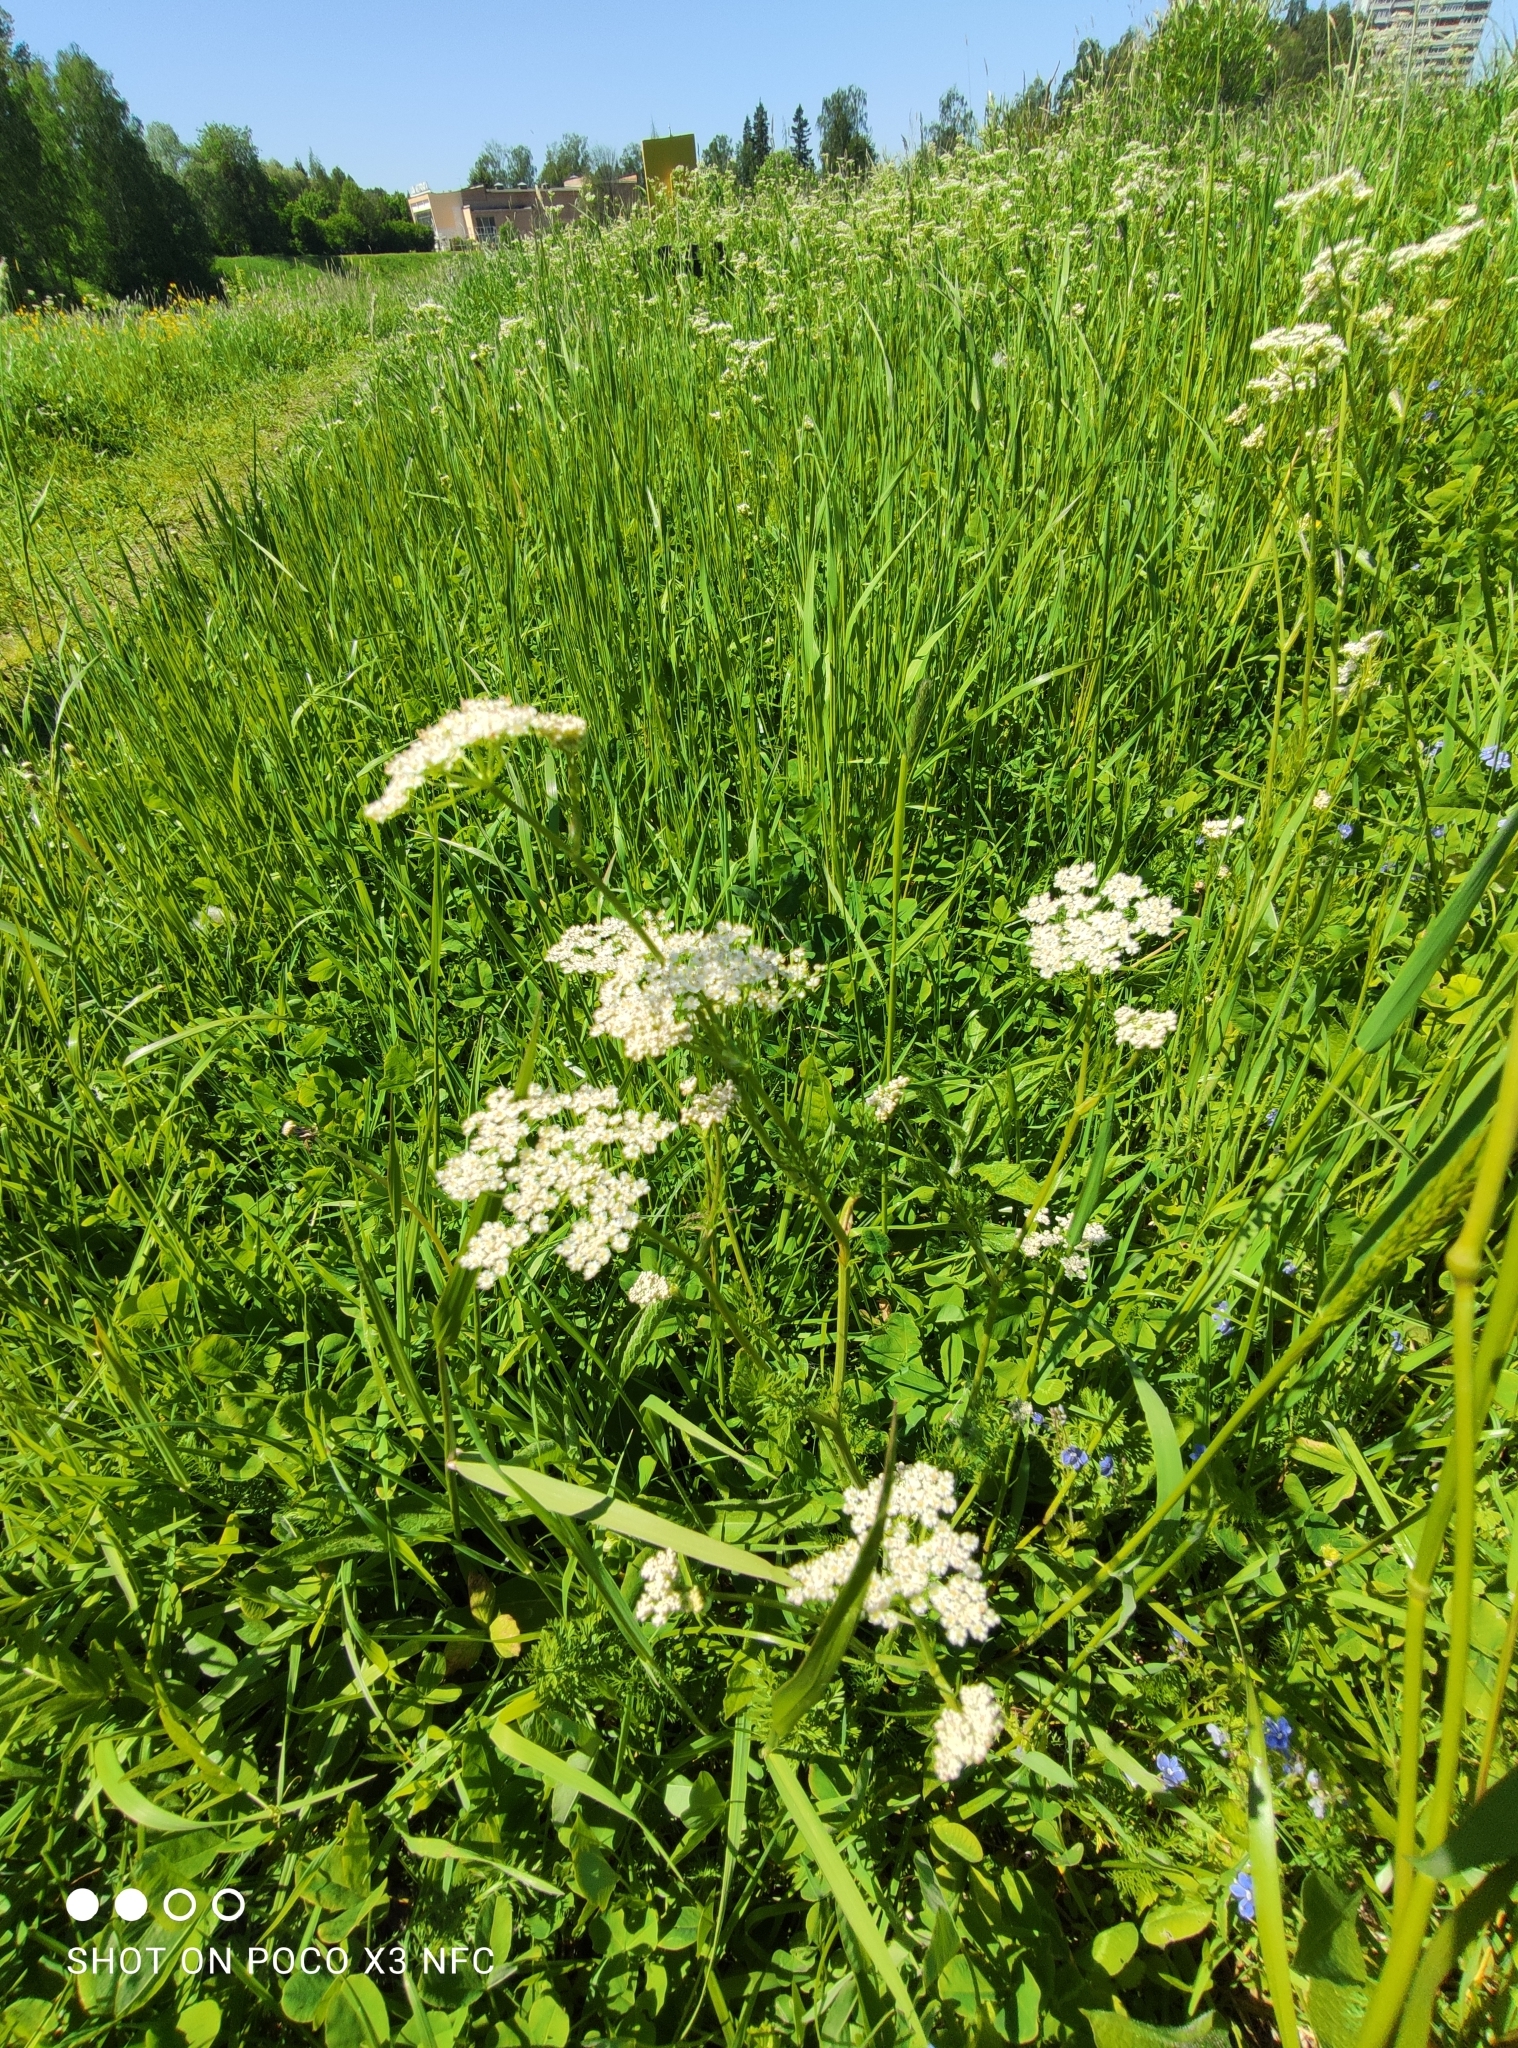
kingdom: Plantae
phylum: Tracheophyta
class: Magnoliopsida
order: Apiales
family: Apiaceae
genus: Carum
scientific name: Carum carvi
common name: Caraway
